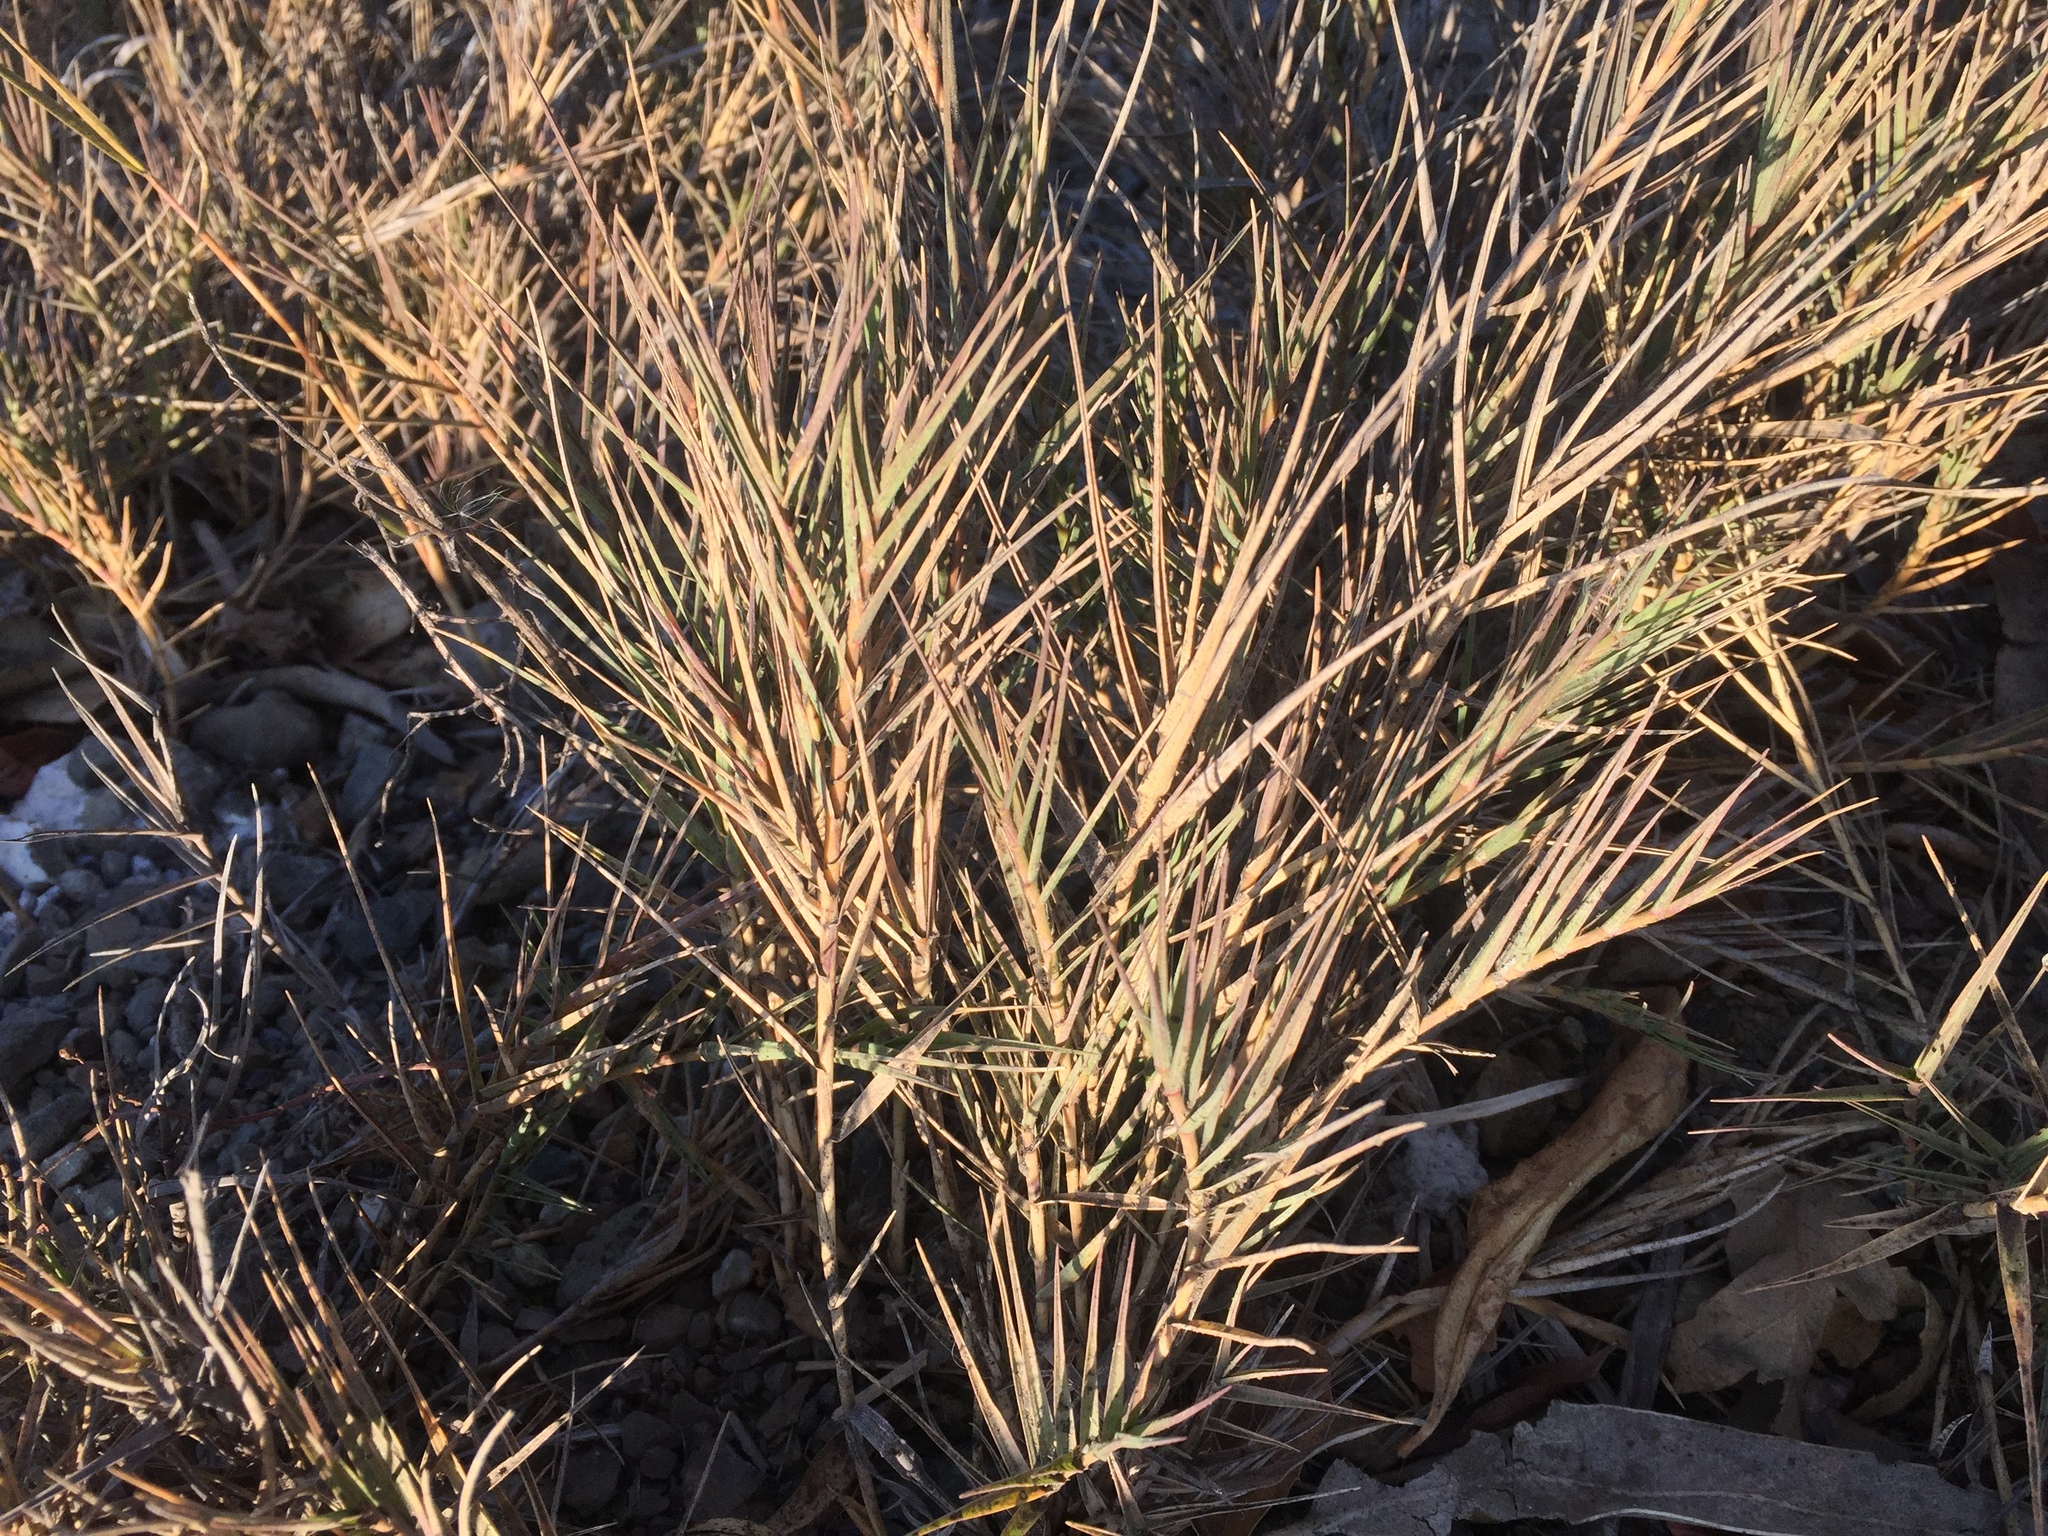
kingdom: Plantae
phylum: Tracheophyta
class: Liliopsida
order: Poales
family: Poaceae
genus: Distichlis
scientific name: Distichlis spicata
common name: Saltgrass
